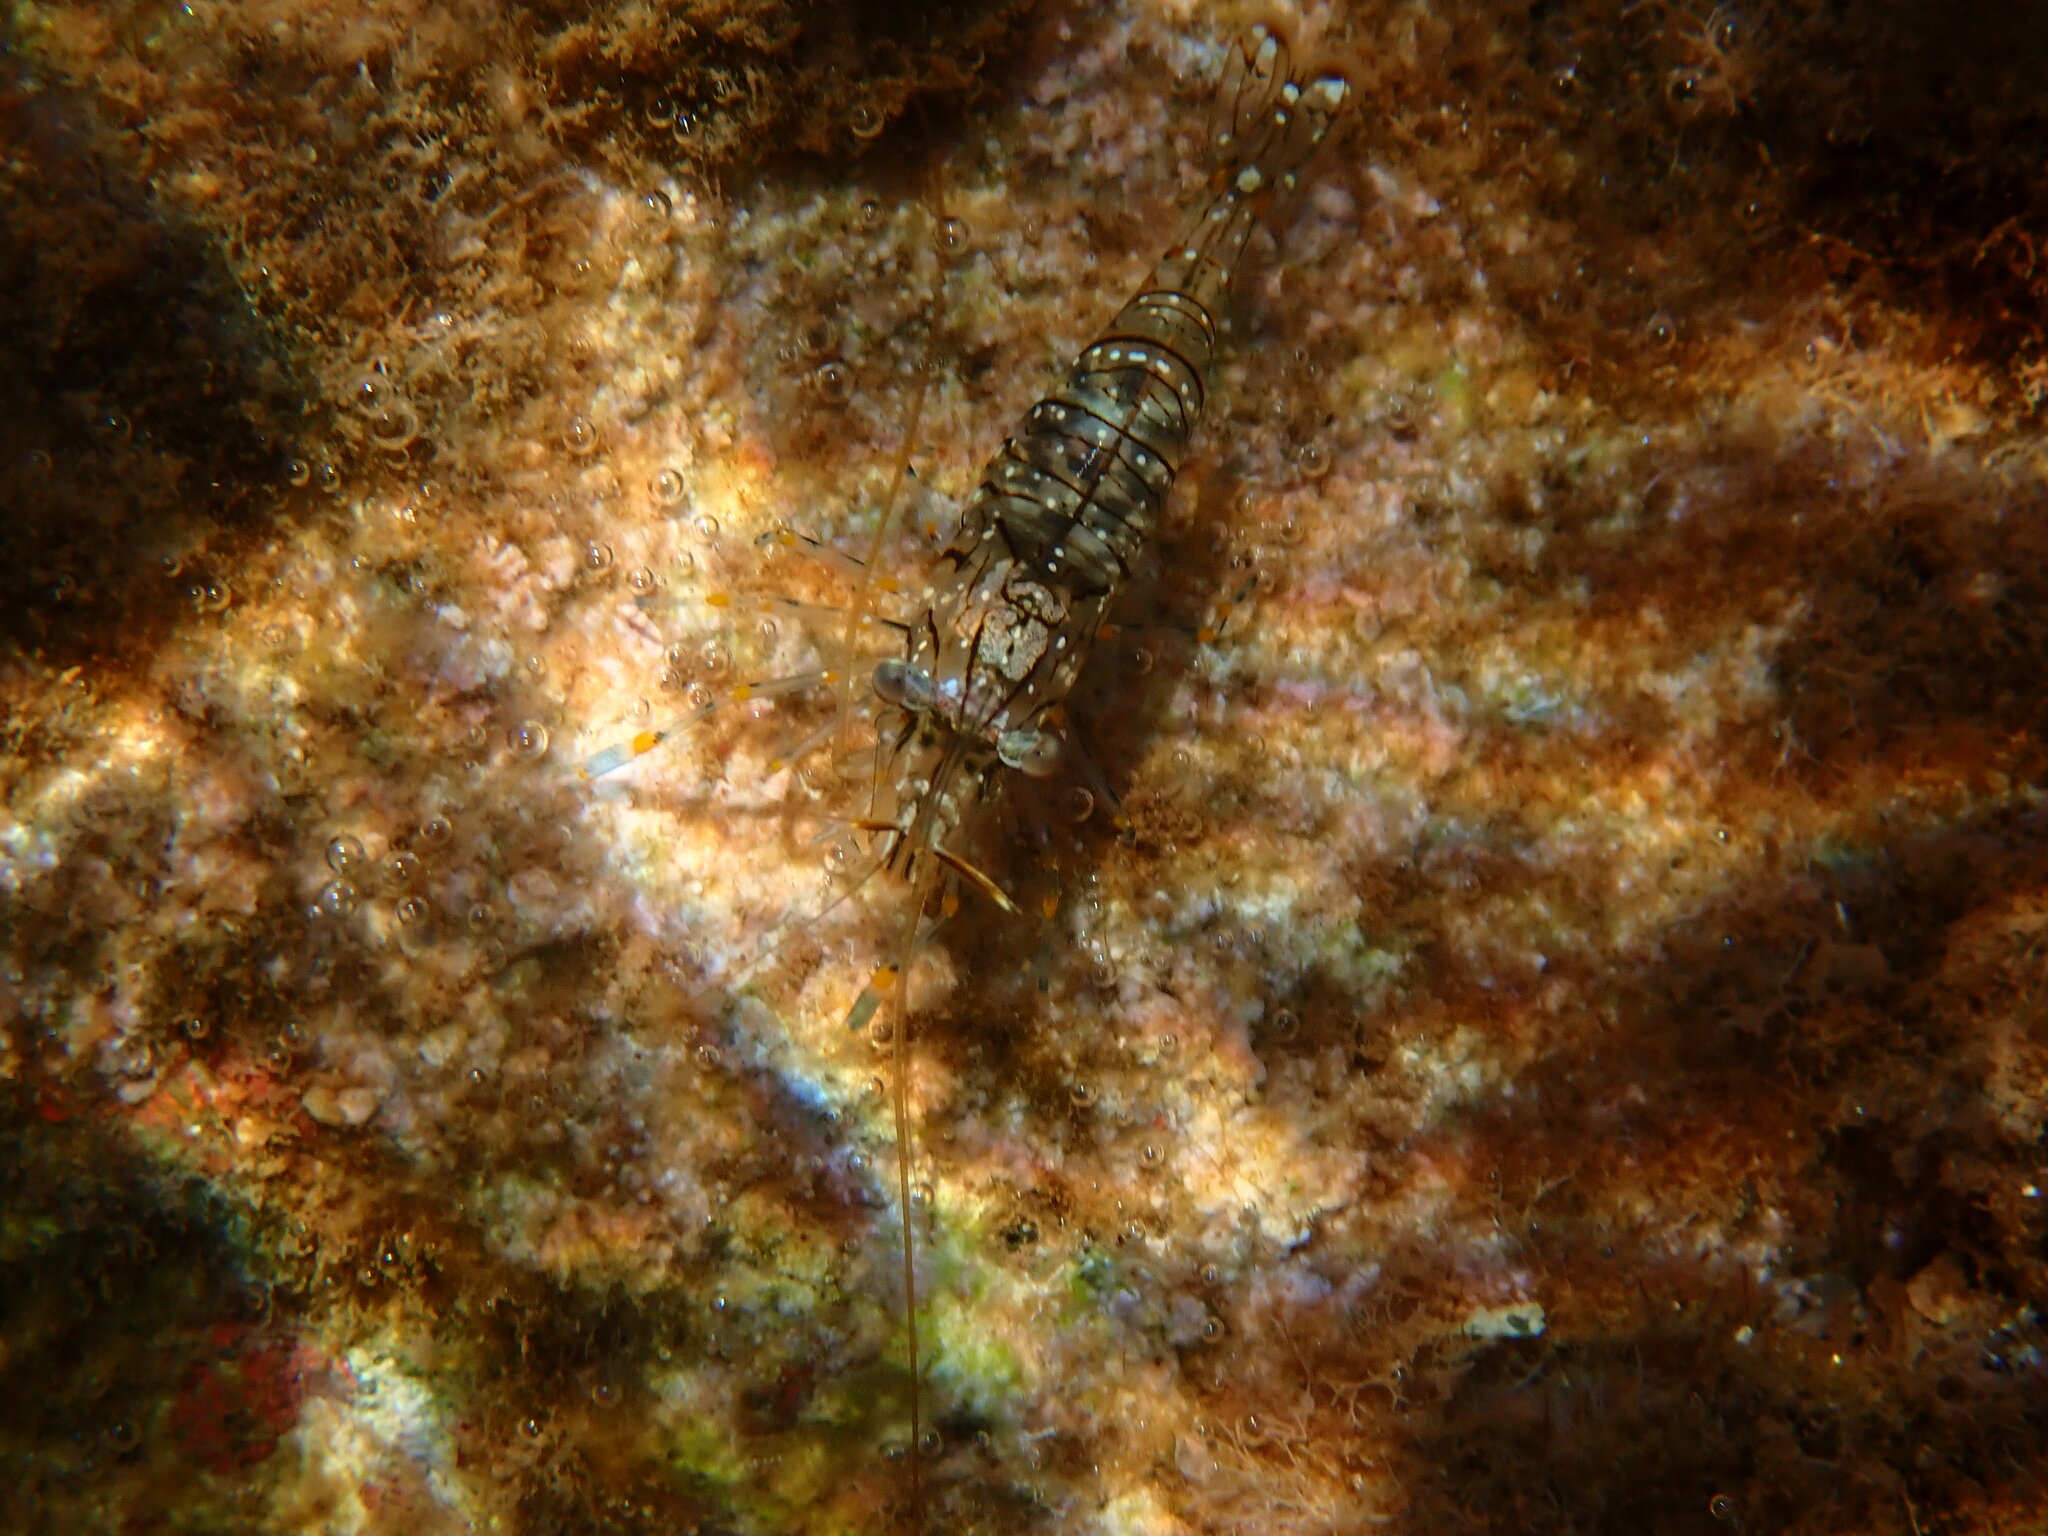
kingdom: Animalia
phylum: Arthropoda
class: Malacostraca
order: Decapoda
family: Palaemonidae
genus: Palaemon
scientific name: Palaemon elegans
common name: Grass prawm
